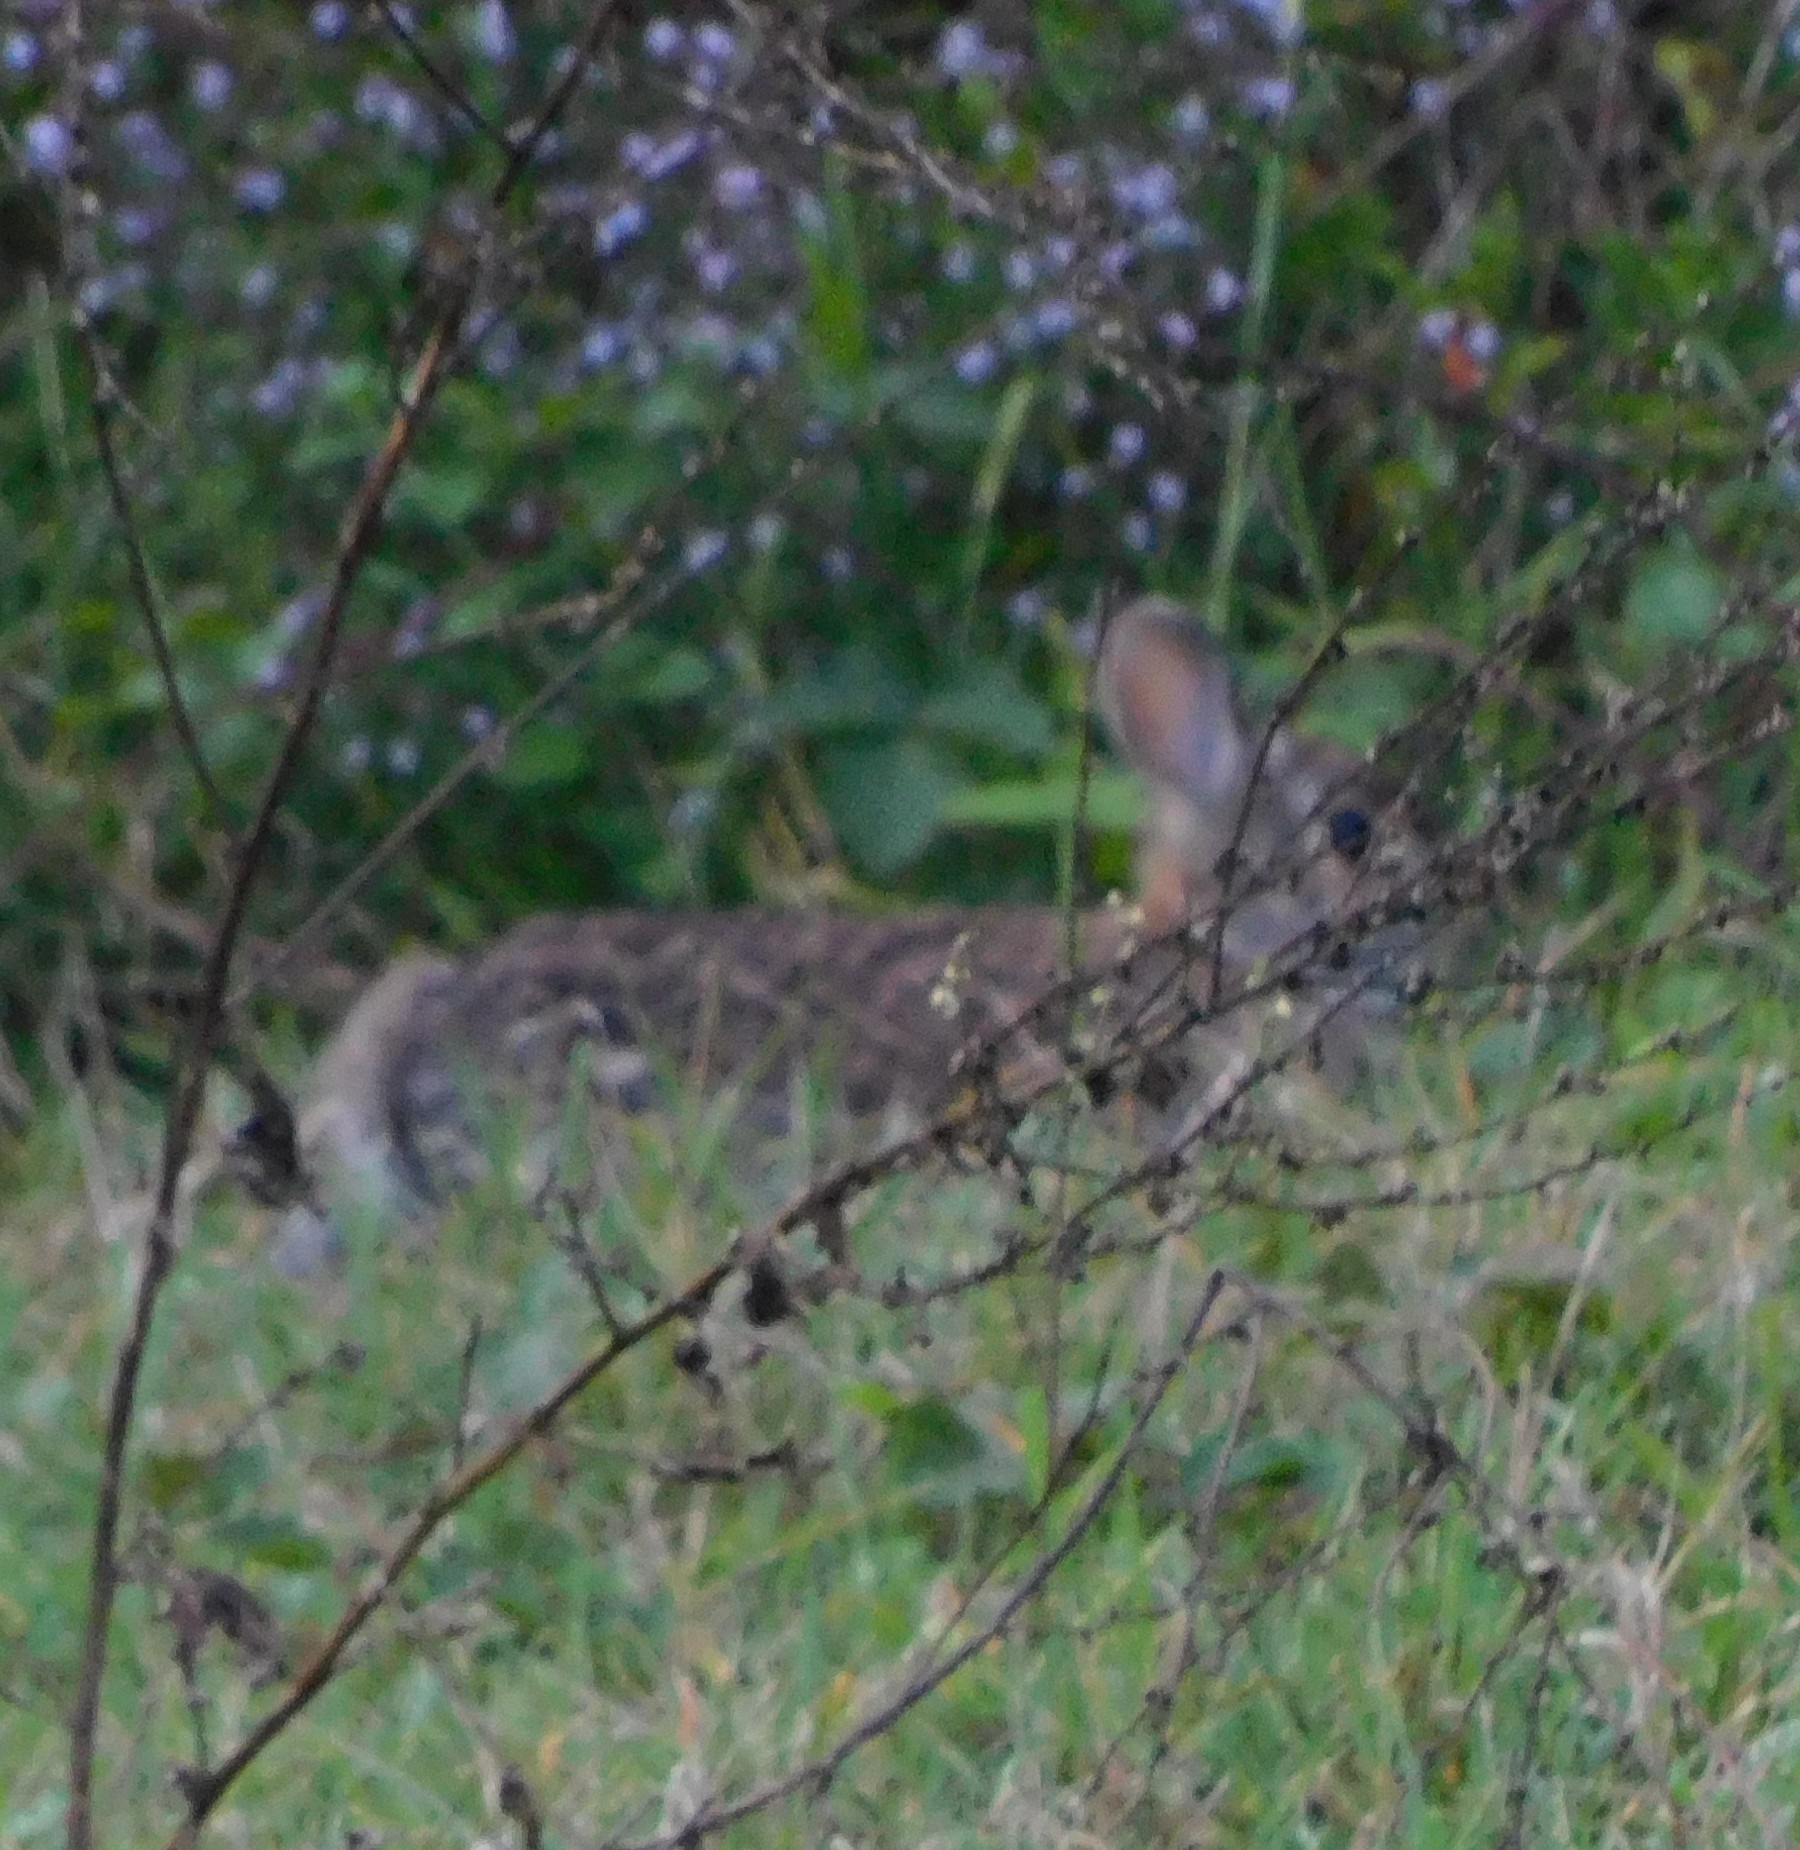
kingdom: Animalia
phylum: Chordata
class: Mammalia
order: Lagomorpha
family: Leporidae
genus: Sylvilagus
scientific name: Sylvilagus floridanus
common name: Eastern cottontail
